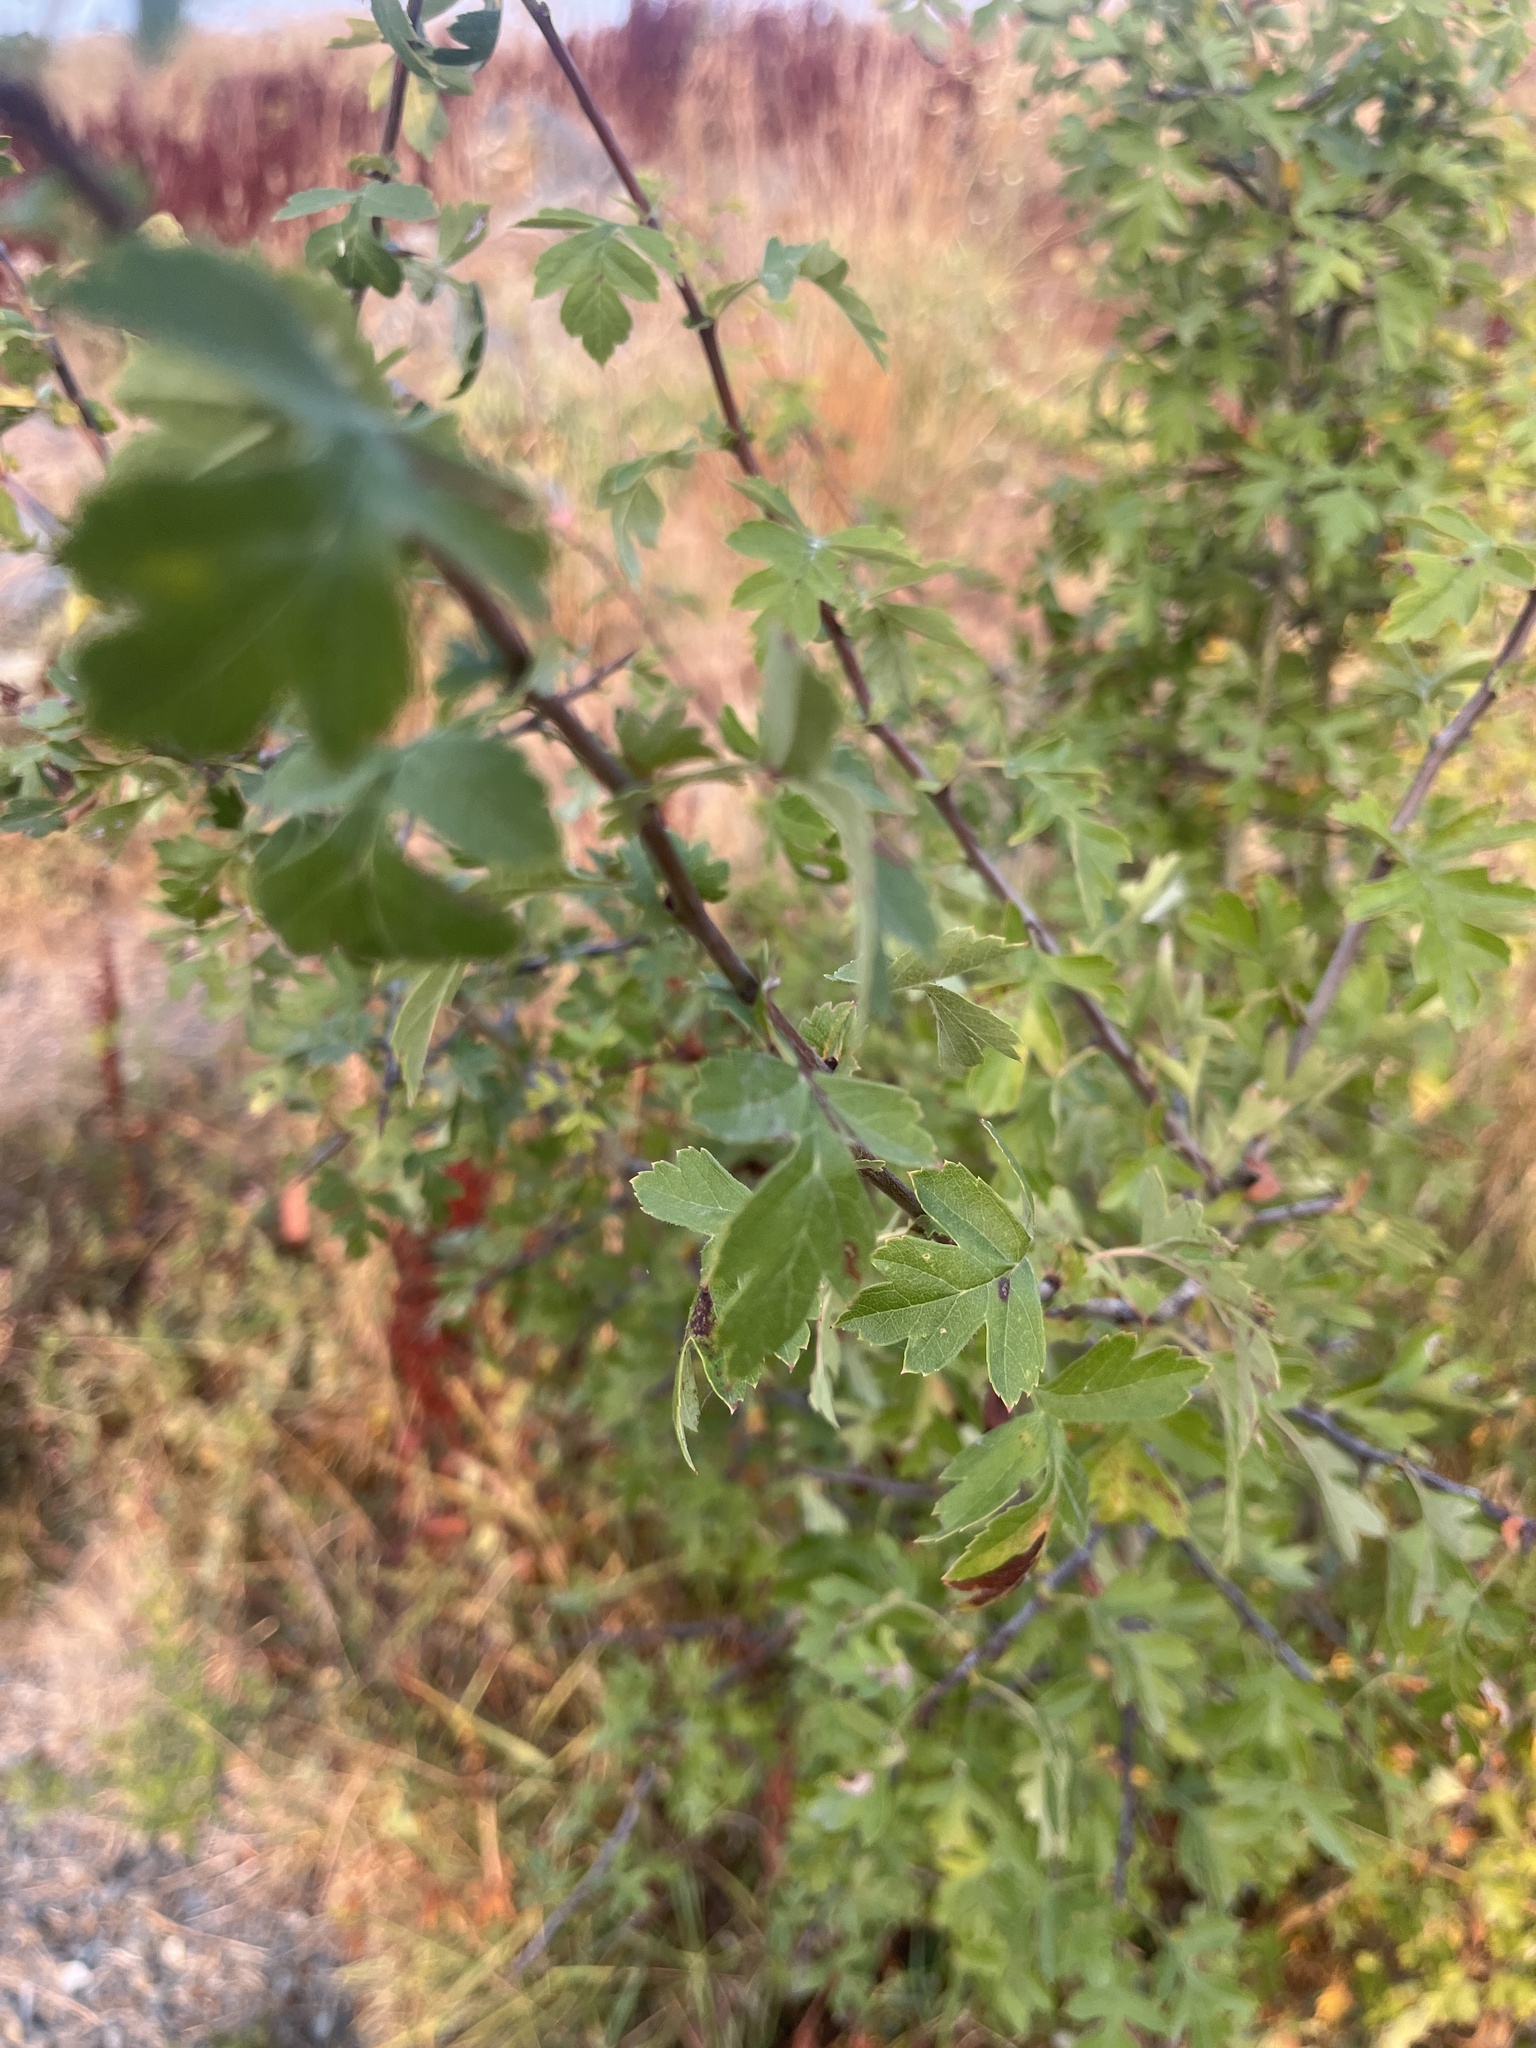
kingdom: Plantae
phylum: Tracheophyta
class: Magnoliopsida
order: Rosales
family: Rosaceae
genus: Crataegus
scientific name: Crataegus monogyna
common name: Hawthorn
